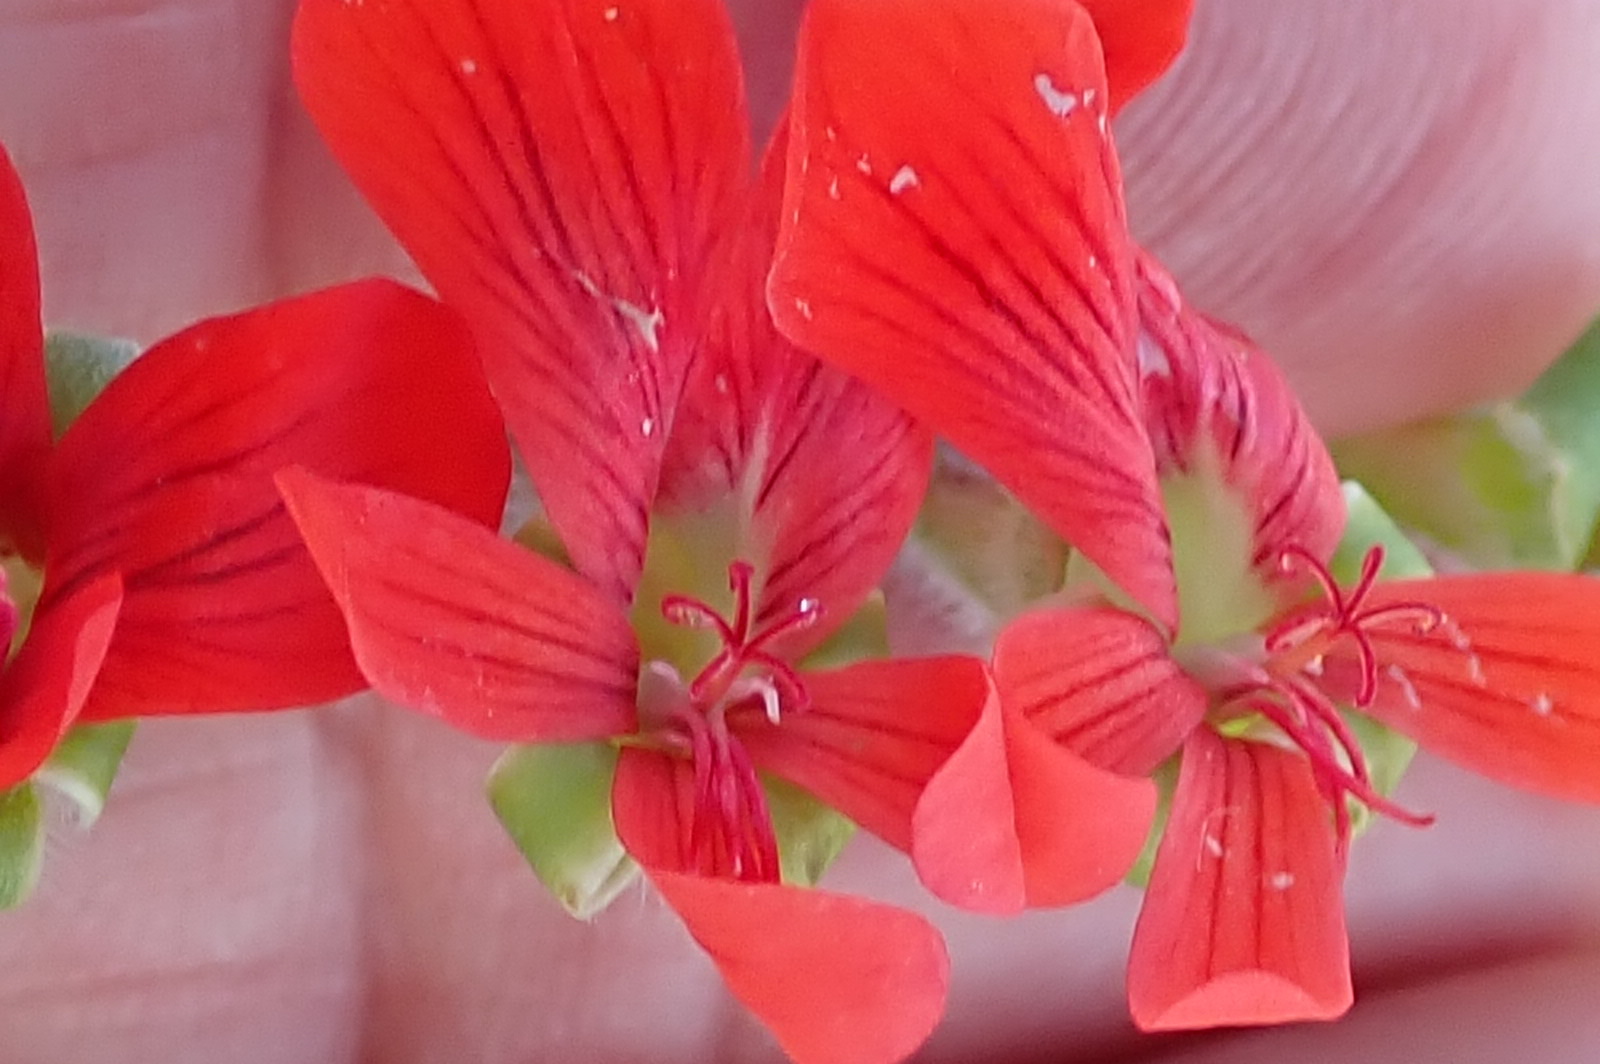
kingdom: Plantae
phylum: Tracheophyta
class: Magnoliopsida
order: Geraniales
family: Geraniaceae
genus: Pelargonium
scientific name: Pelargonium fulgidum
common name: Celandine-leaf pelargonium
